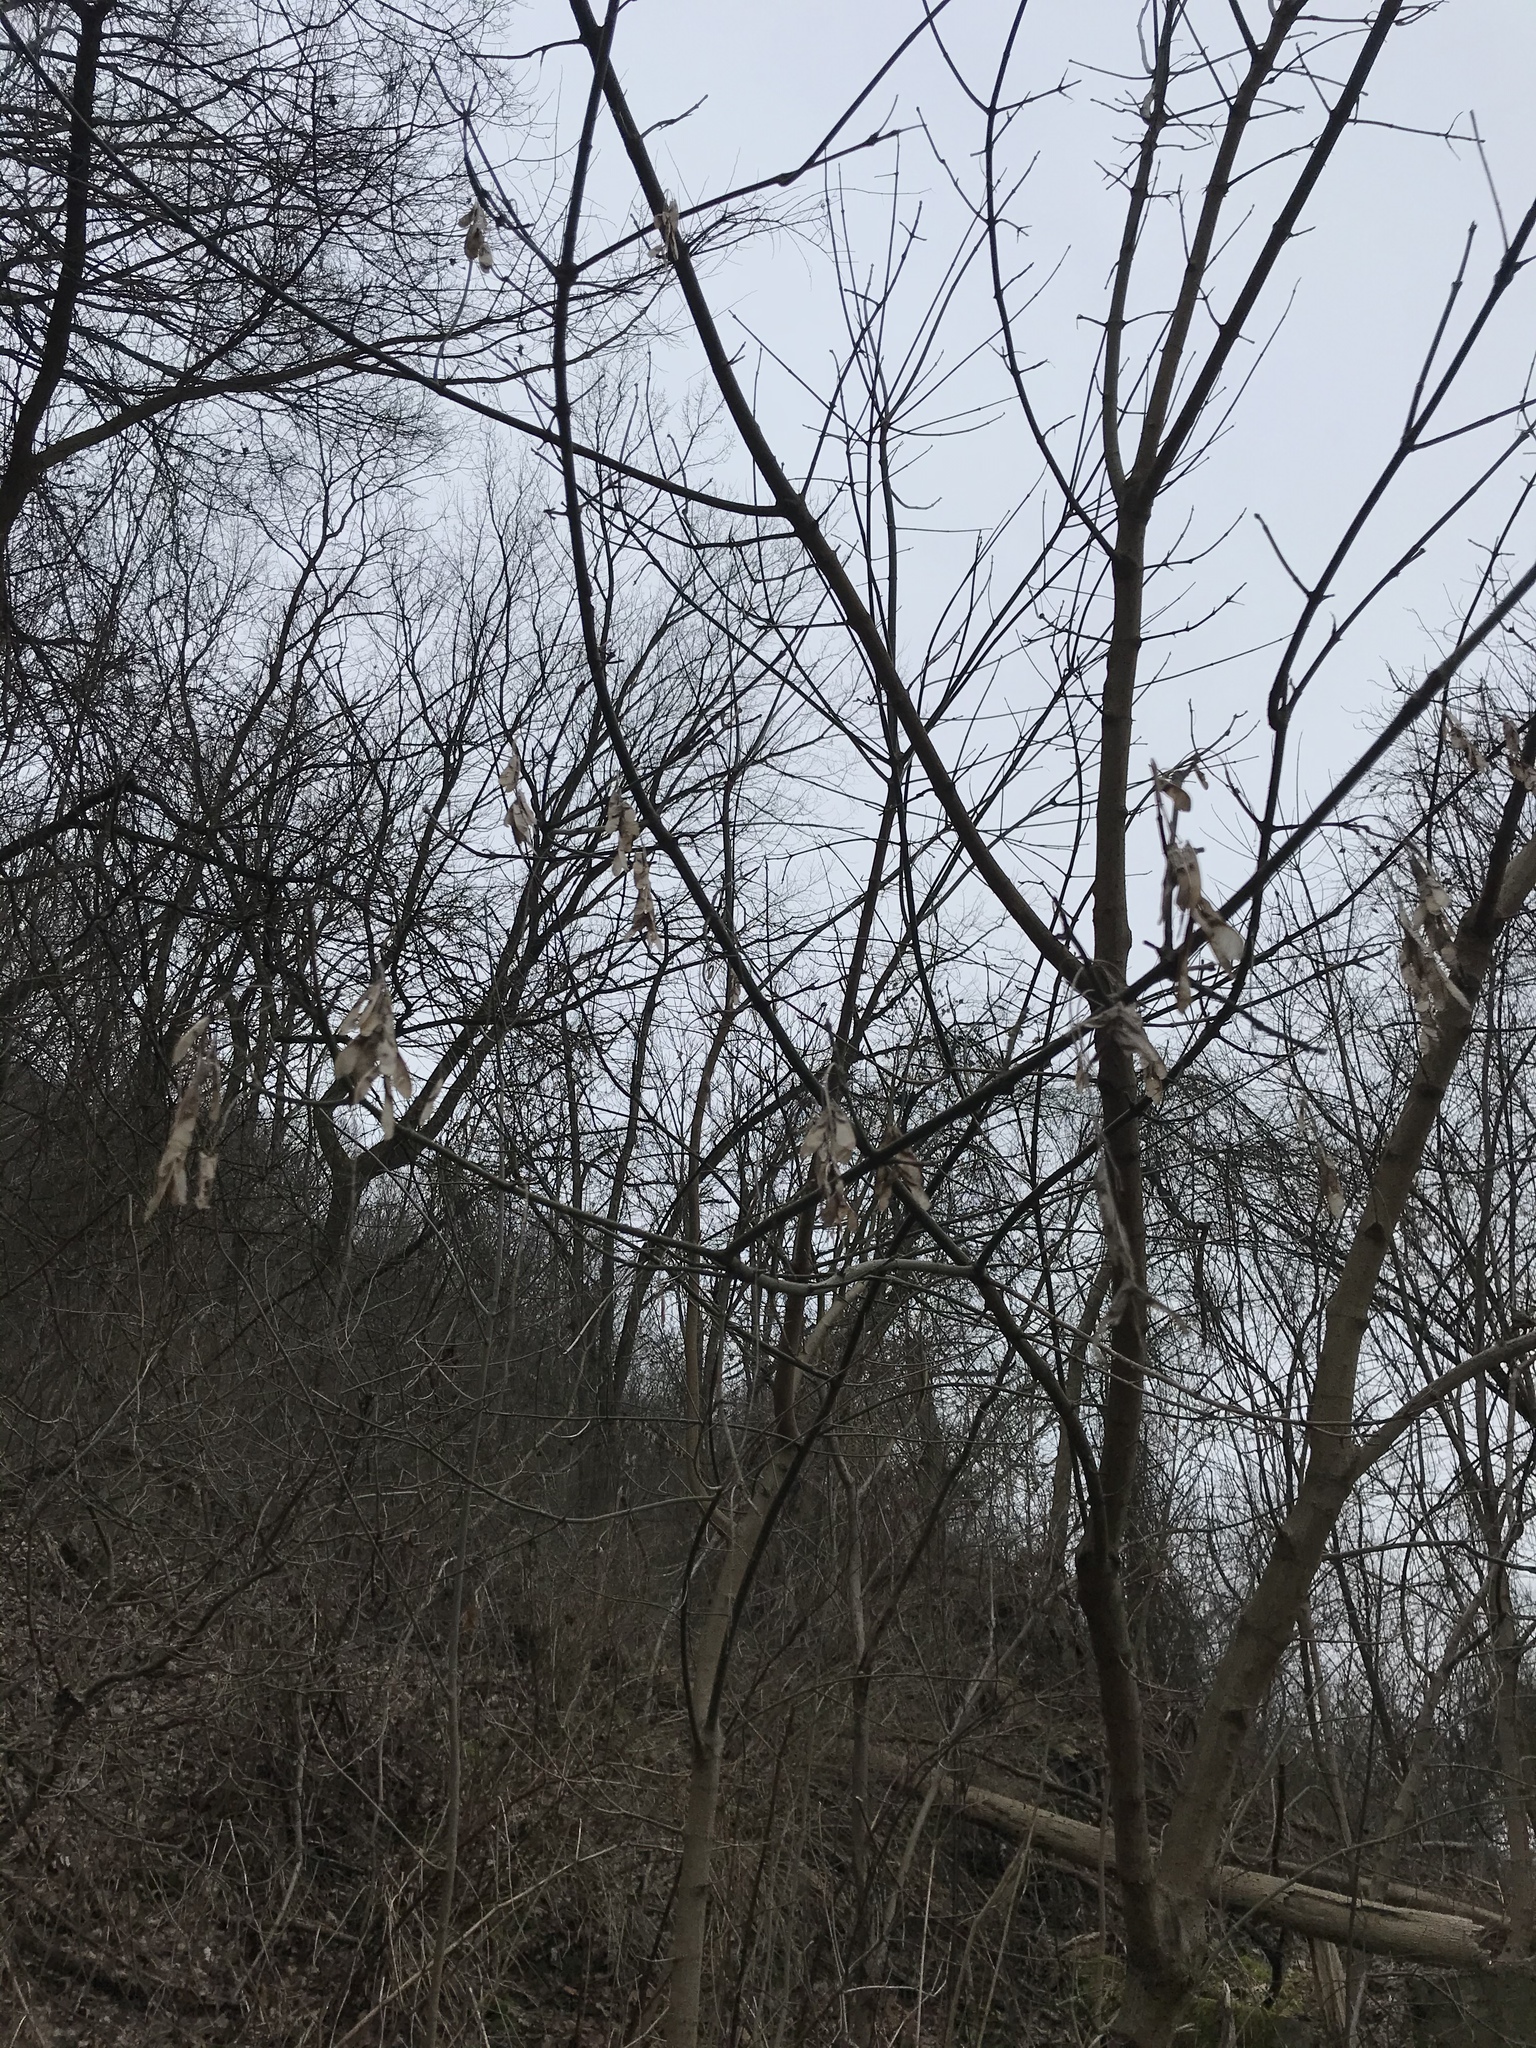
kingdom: Plantae
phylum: Tracheophyta
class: Magnoliopsida
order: Sapindales
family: Sapindaceae
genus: Acer
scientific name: Acer negundo
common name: Ashleaf maple
